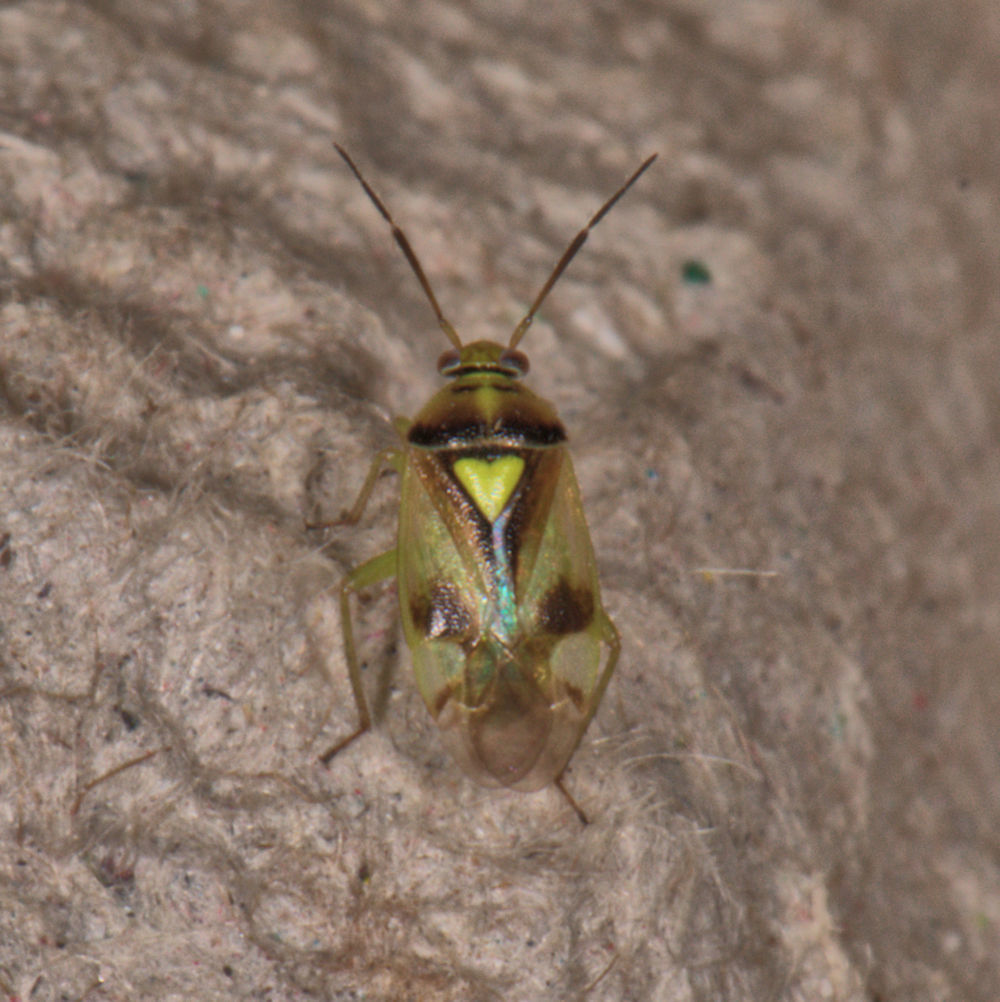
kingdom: Animalia
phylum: Arthropoda
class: Insecta
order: Hemiptera
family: Miridae
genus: Orthops
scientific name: Orthops scutellatus
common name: Plant bug
